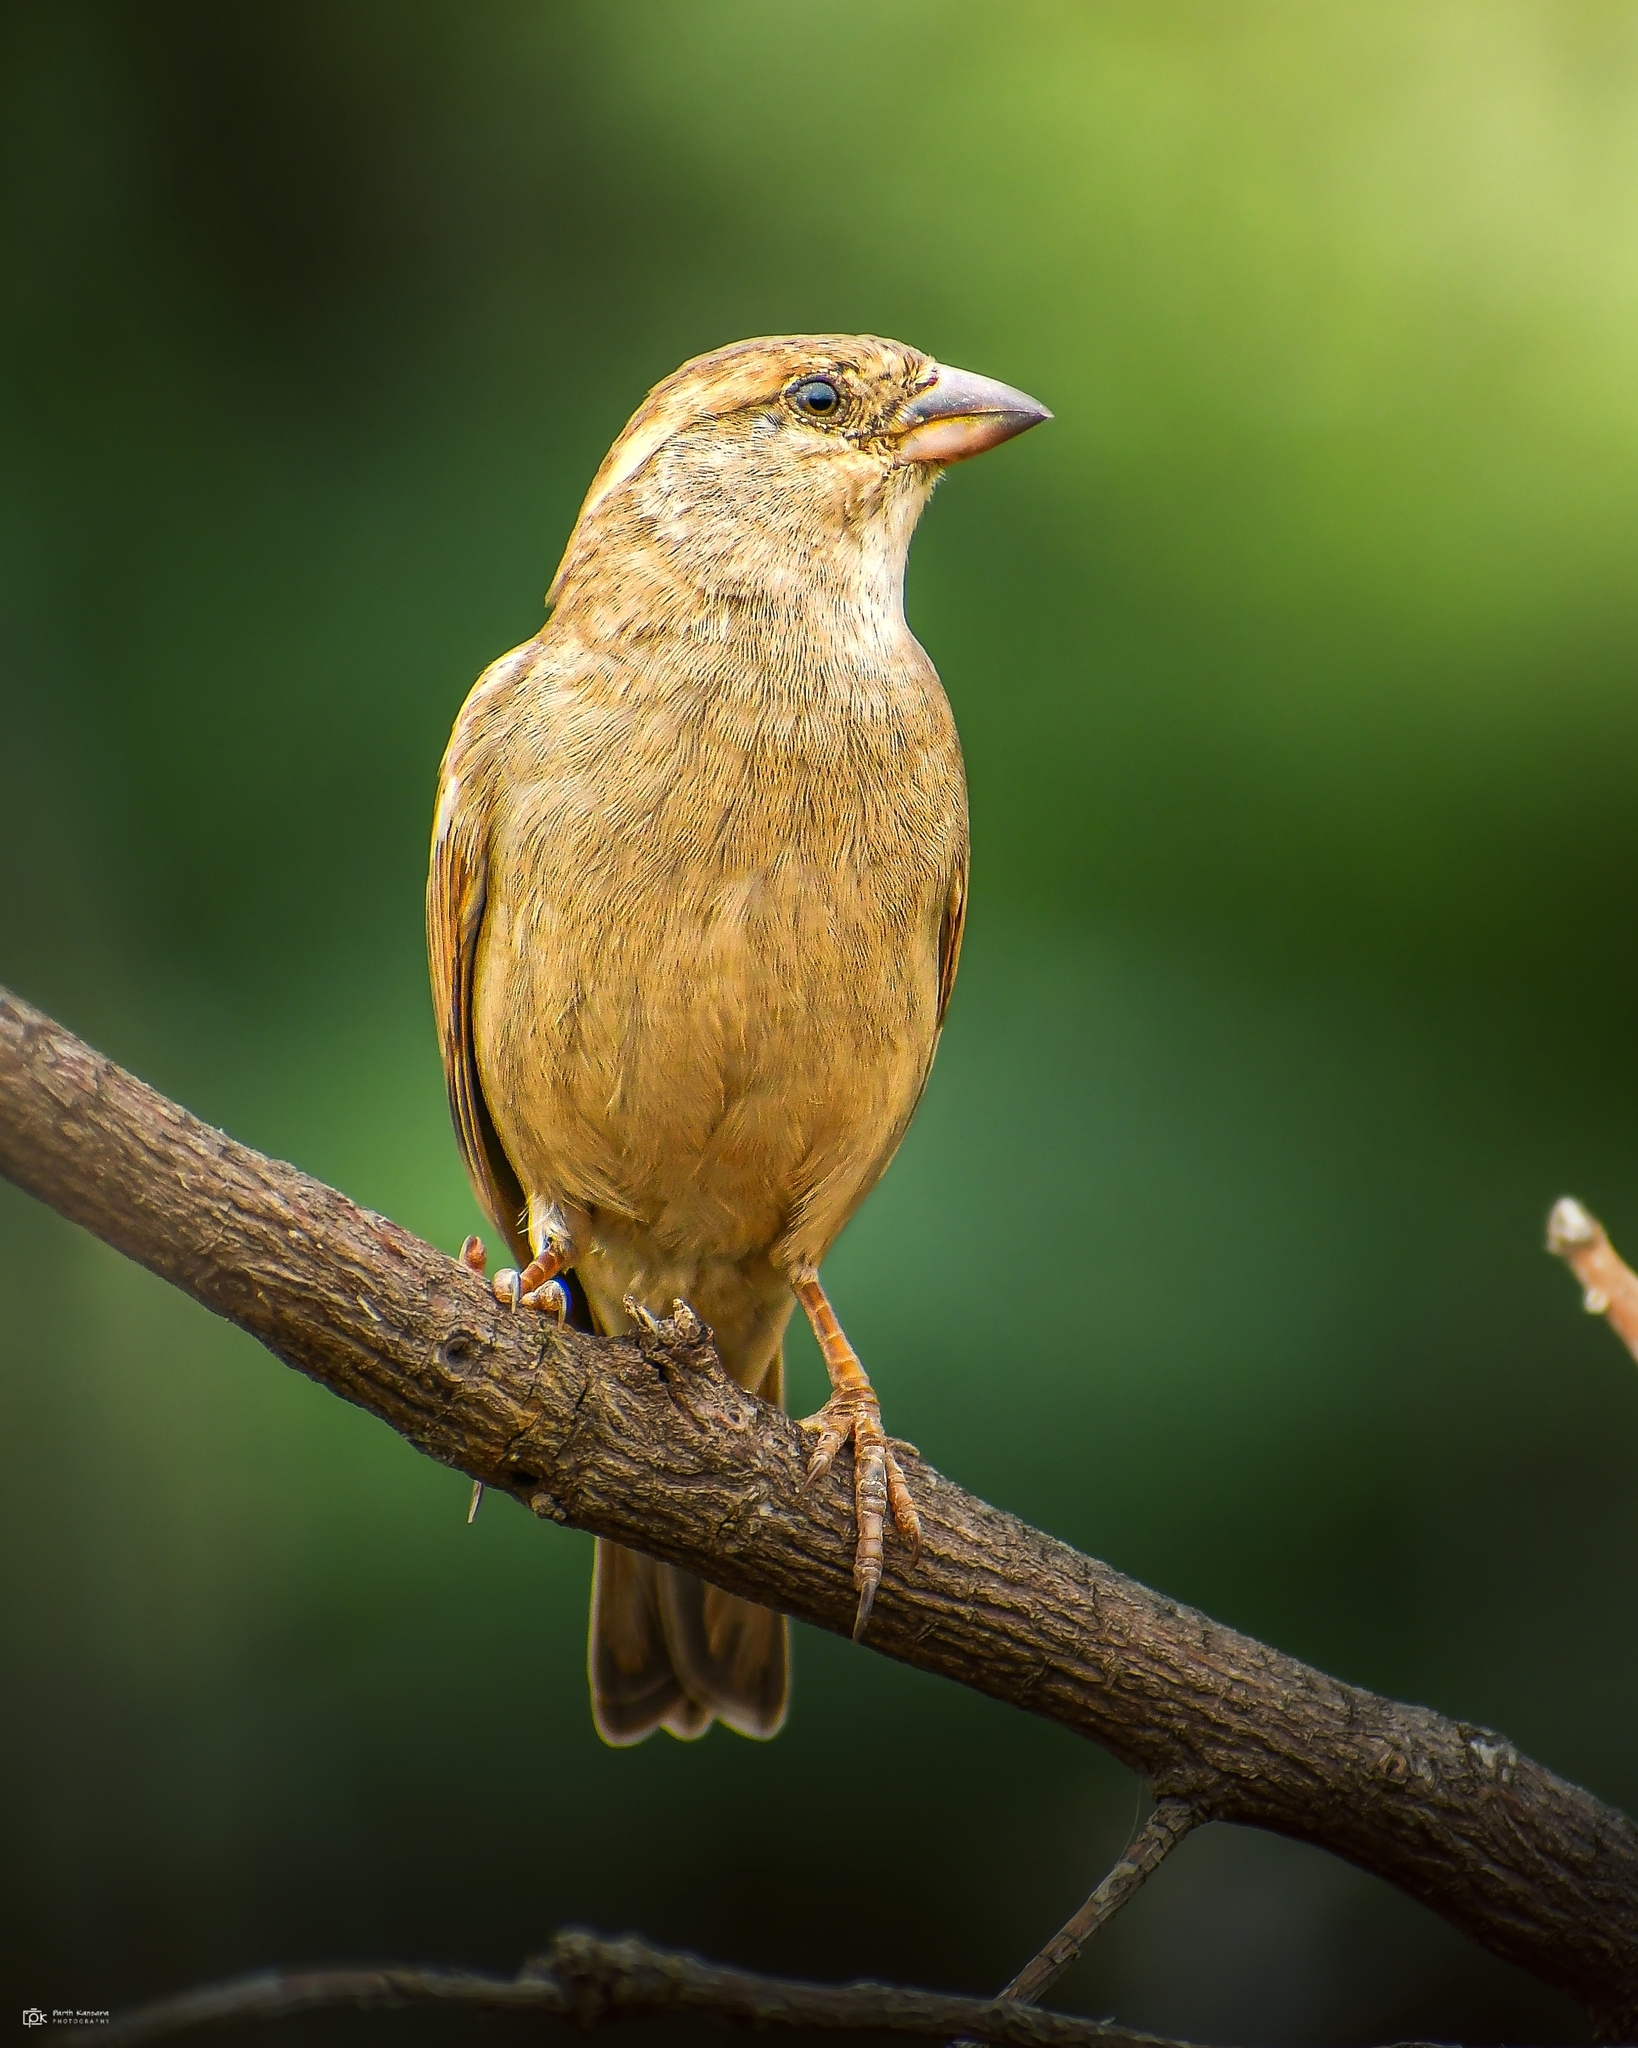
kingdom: Animalia
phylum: Chordata
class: Aves
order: Passeriformes
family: Passeridae
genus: Passer
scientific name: Passer domesticus
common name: House sparrow
